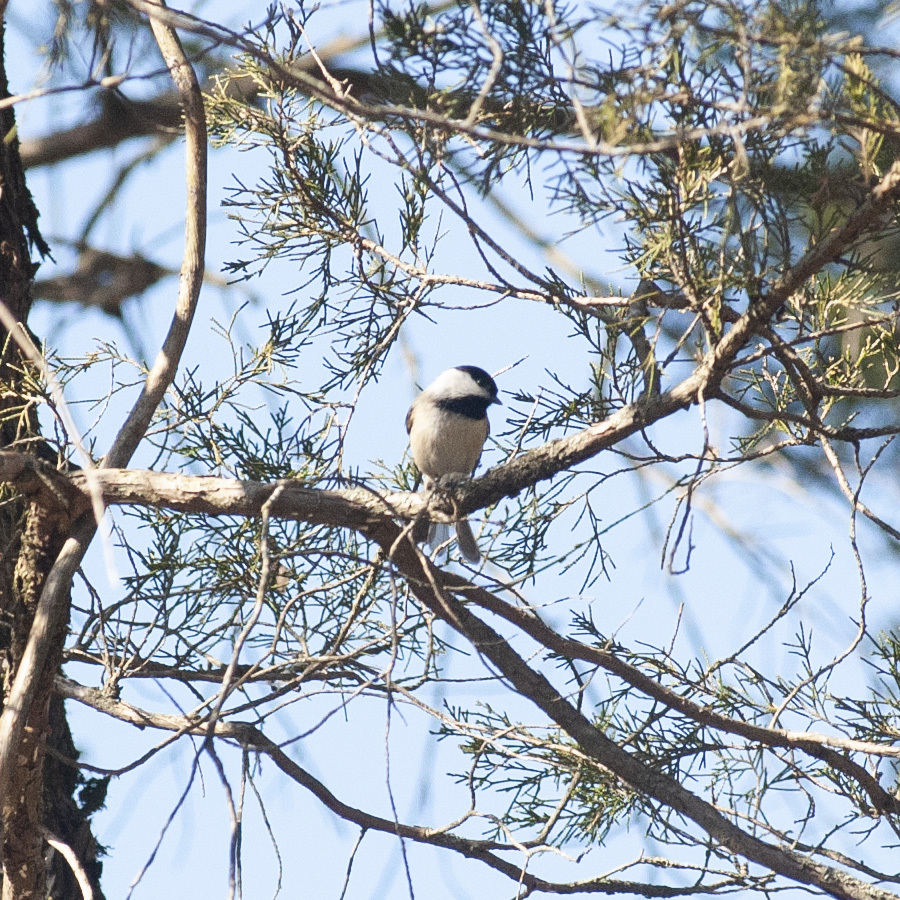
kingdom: Animalia
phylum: Chordata
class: Aves
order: Passeriformes
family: Paridae
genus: Poecile
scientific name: Poecile carolinensis
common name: Carolina chickadee
